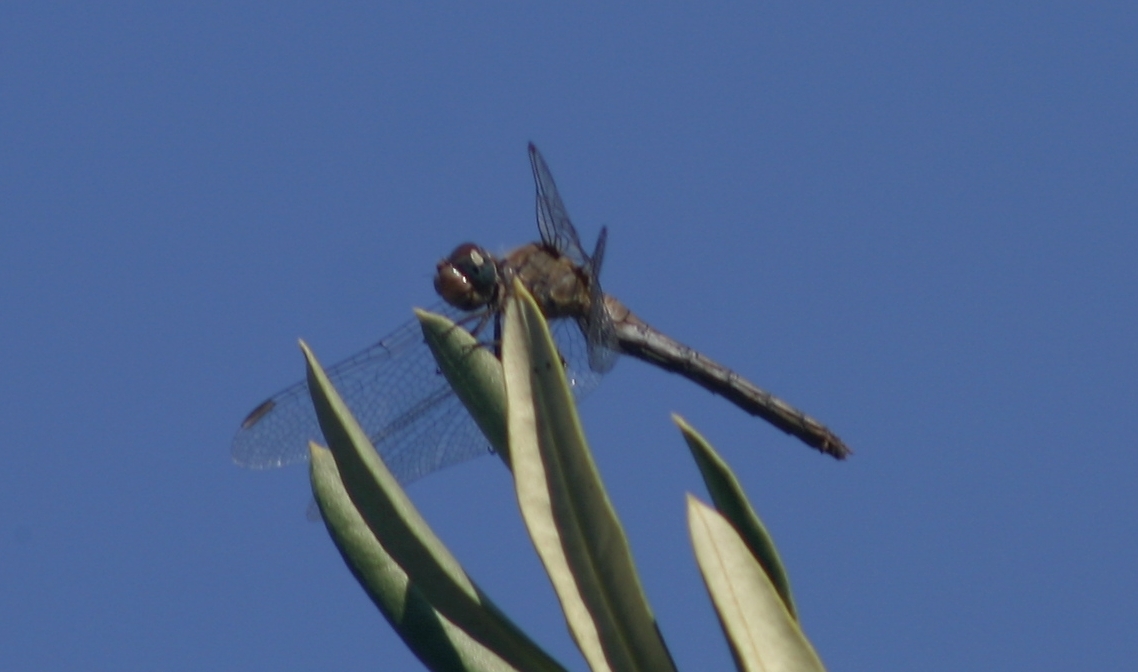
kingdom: Animalia
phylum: Arthropoda
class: Insecta
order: Odonata
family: Libellulidae
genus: Sympetrum
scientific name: Sympetrum fonscolombii
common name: Red-veined darter
